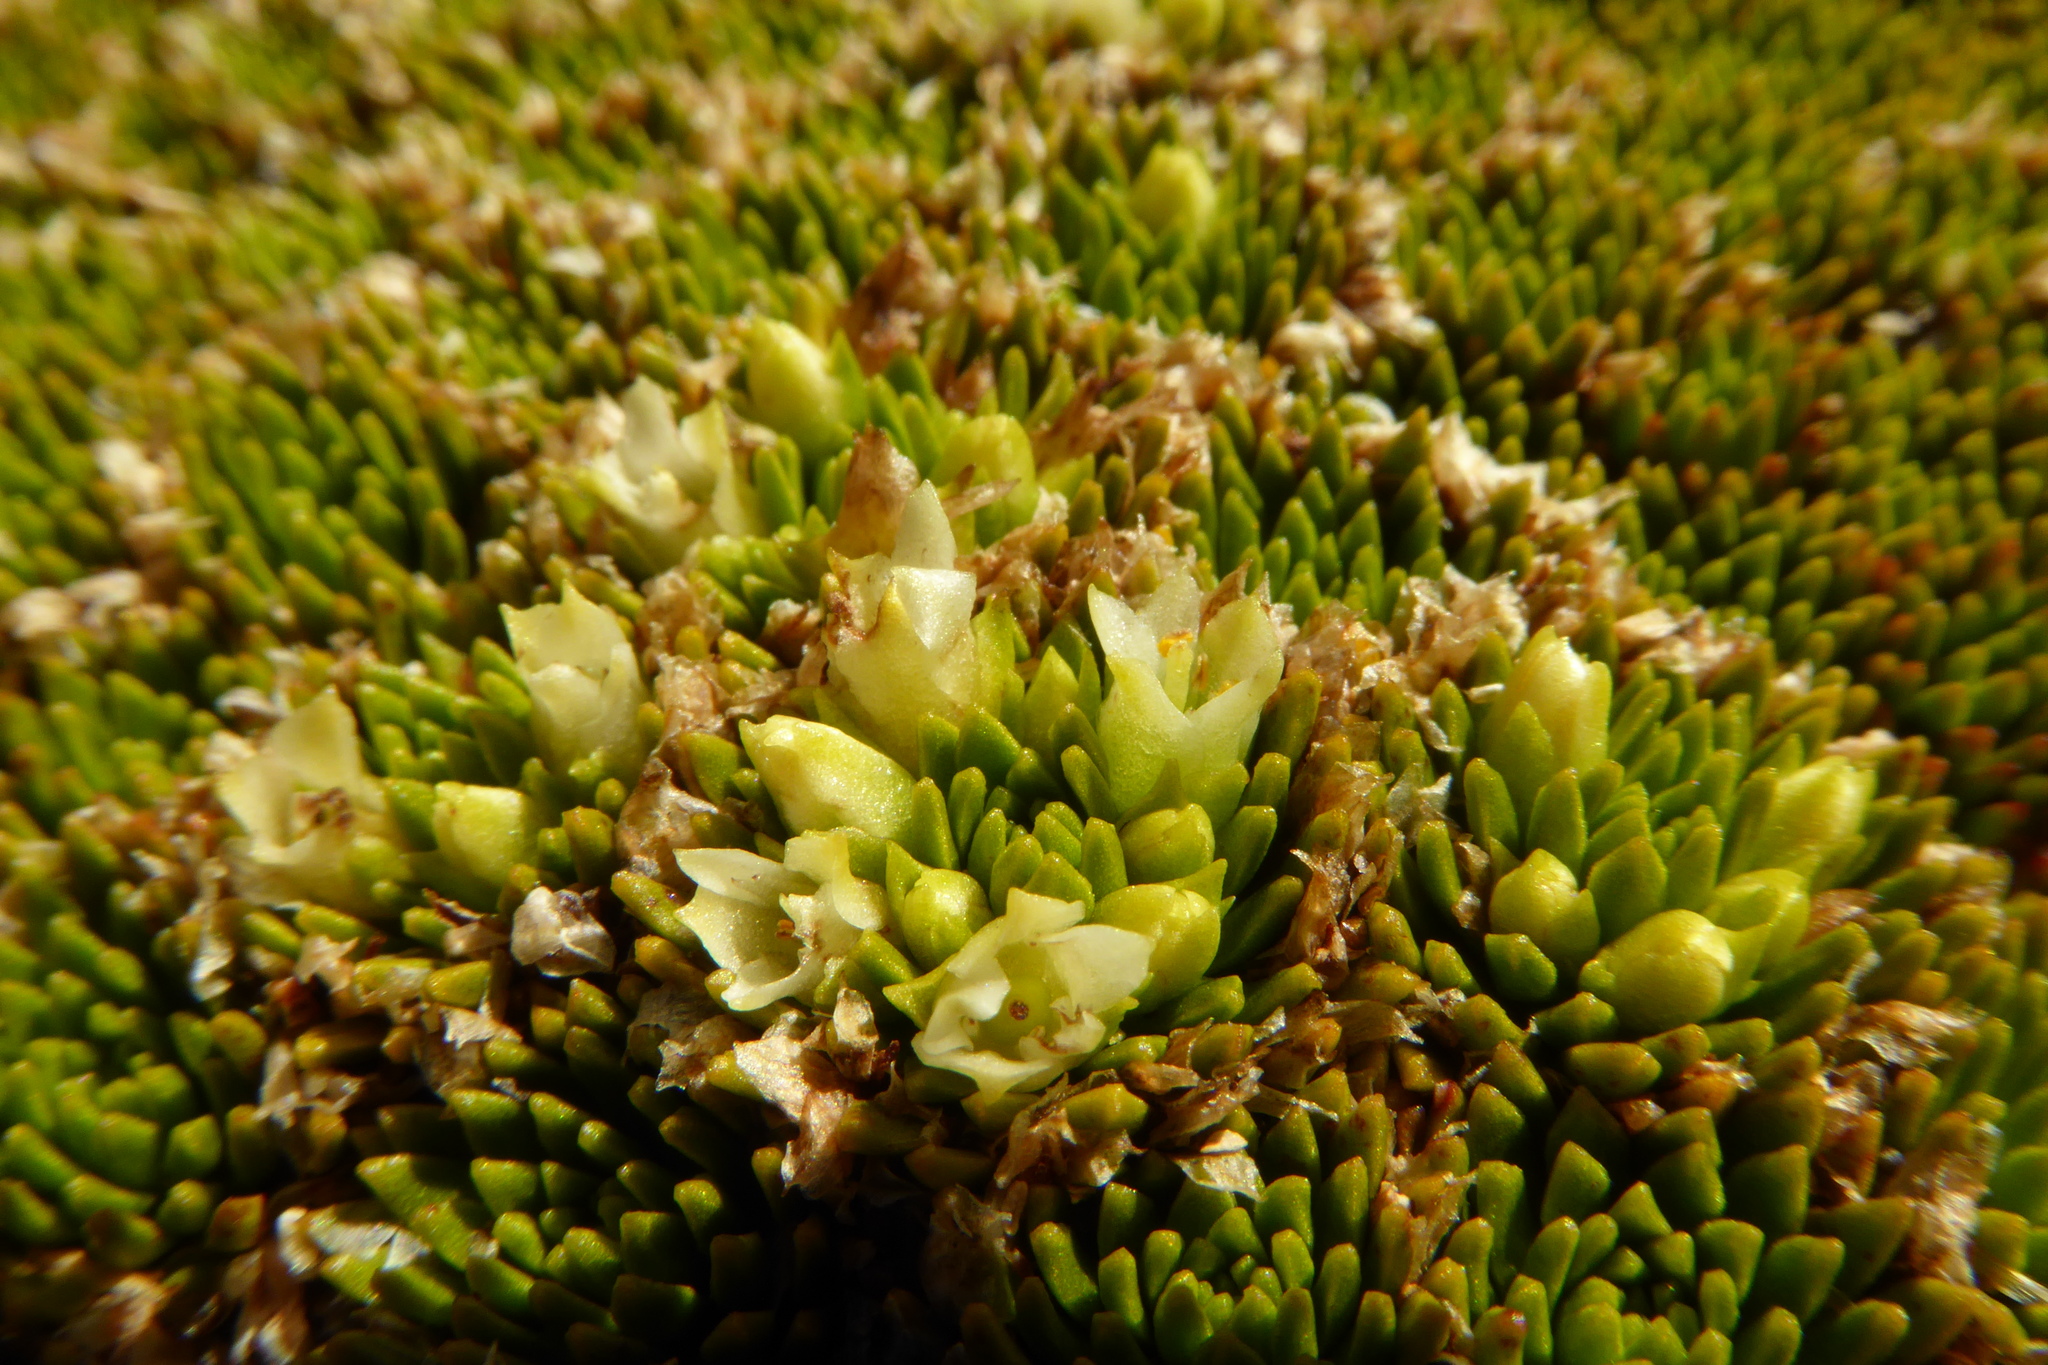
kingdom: Plantae
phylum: Tracheophyta
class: Magnoliopsida
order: Caryophyllales
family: Montiaceae
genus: Hectorella
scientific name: Hectorella caespitosa
